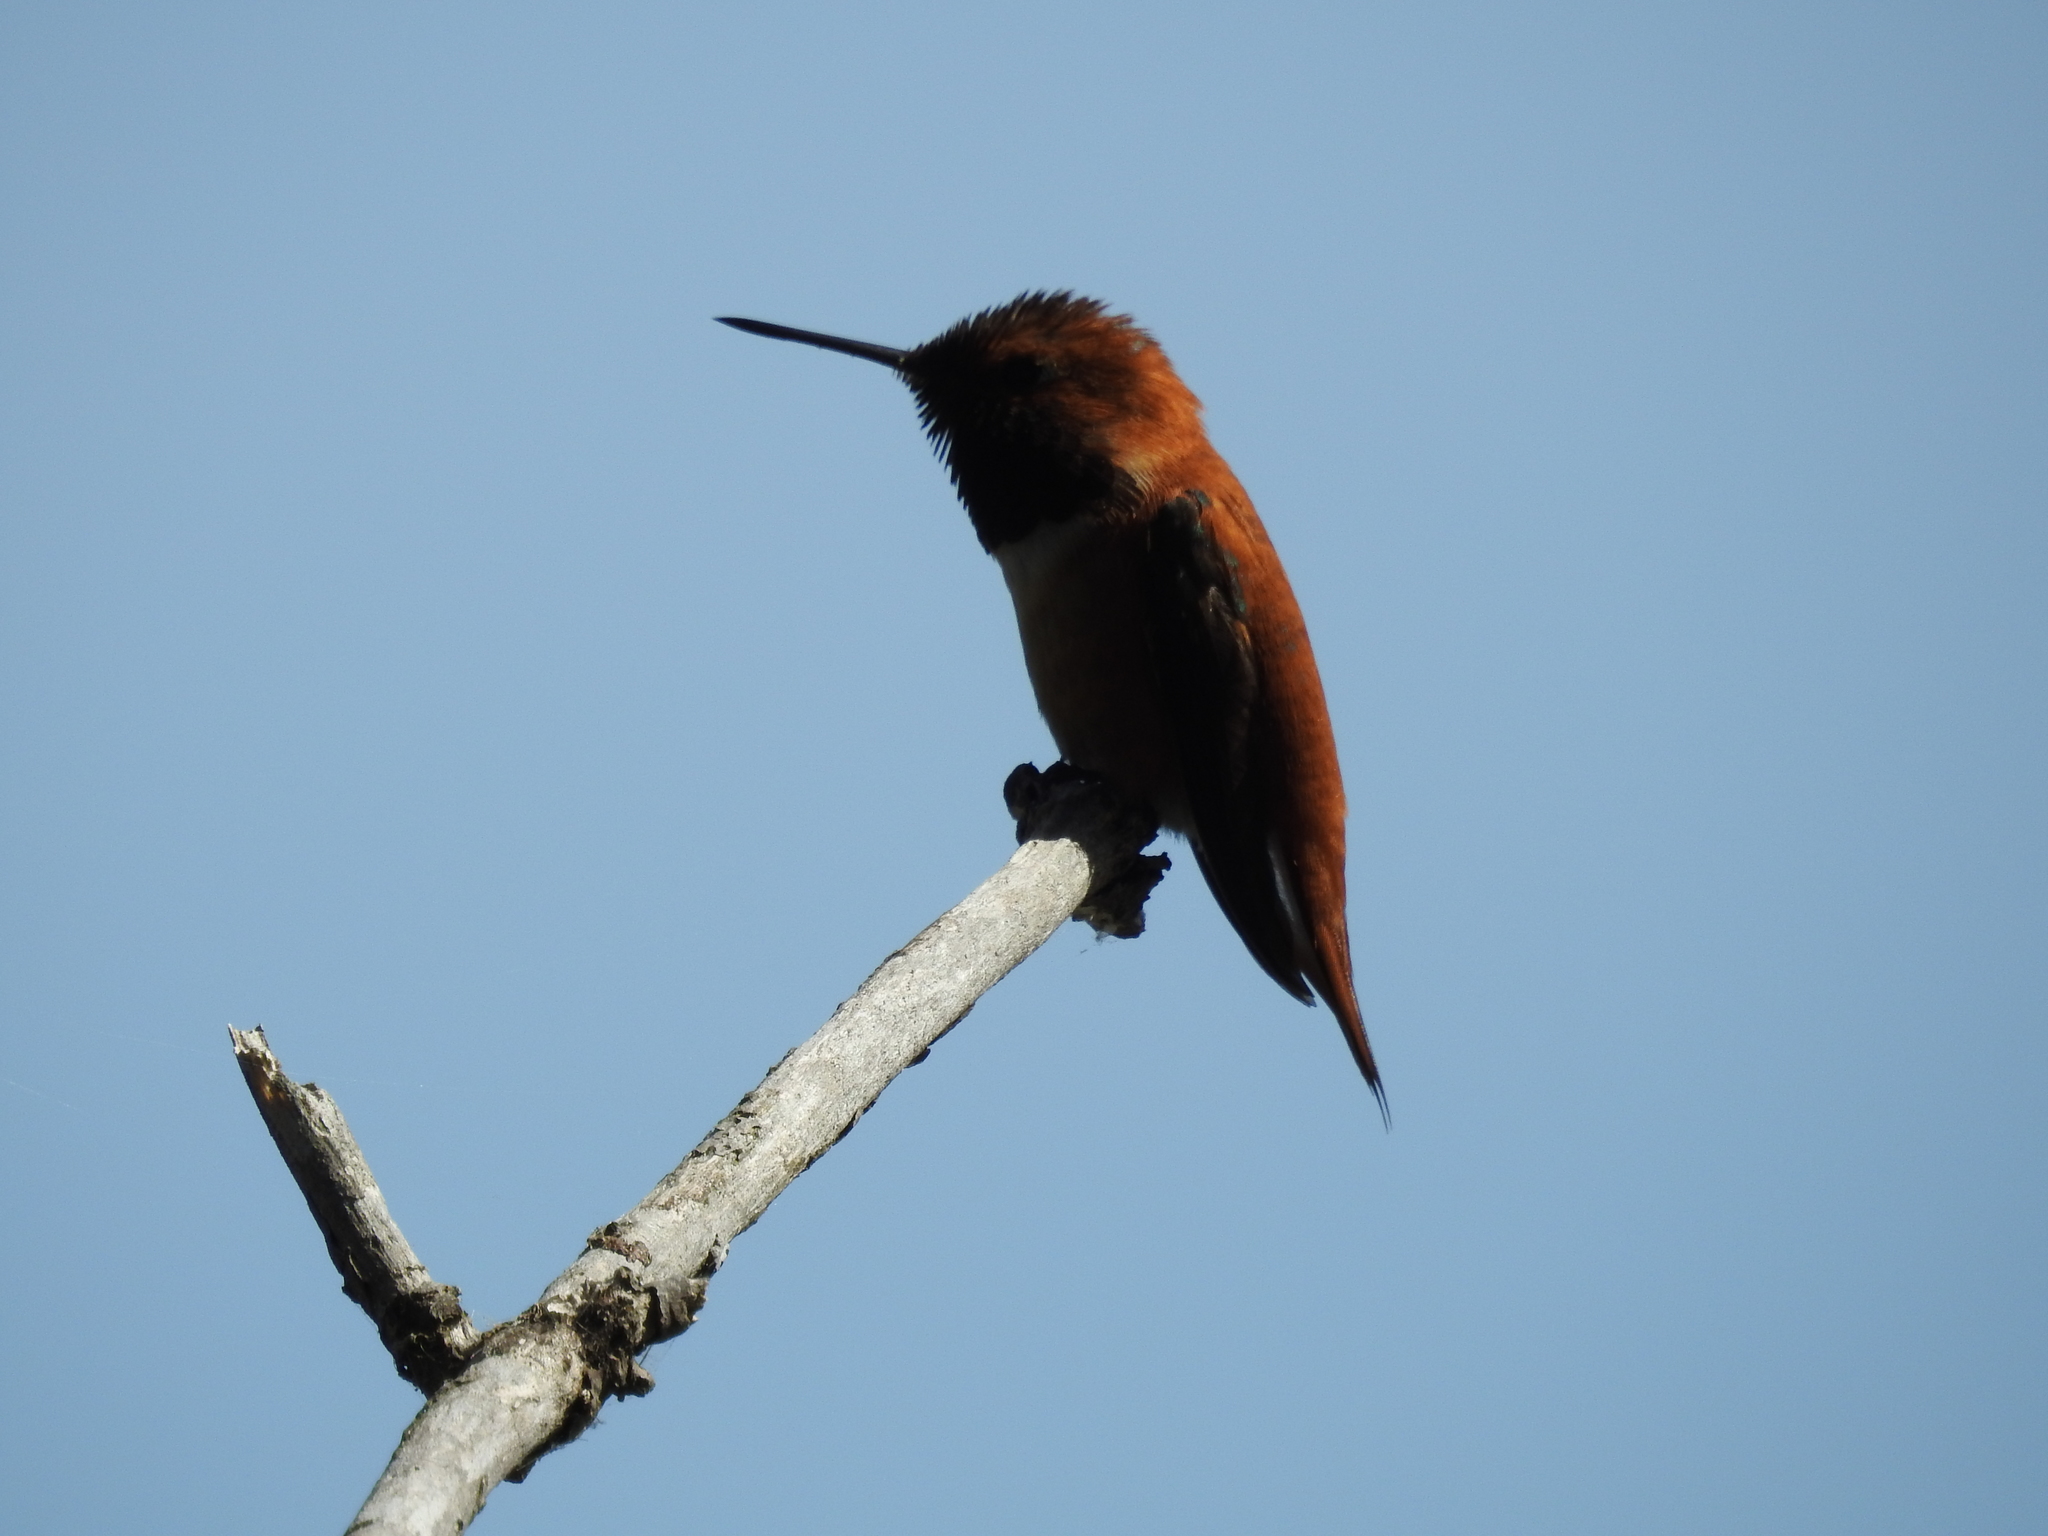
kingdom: Animalia
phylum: Chordata
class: Aves
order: Apodiformes
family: Trochilidae
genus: Selasphorus
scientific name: Selasphorus rufus
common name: Rufous hummingbird
